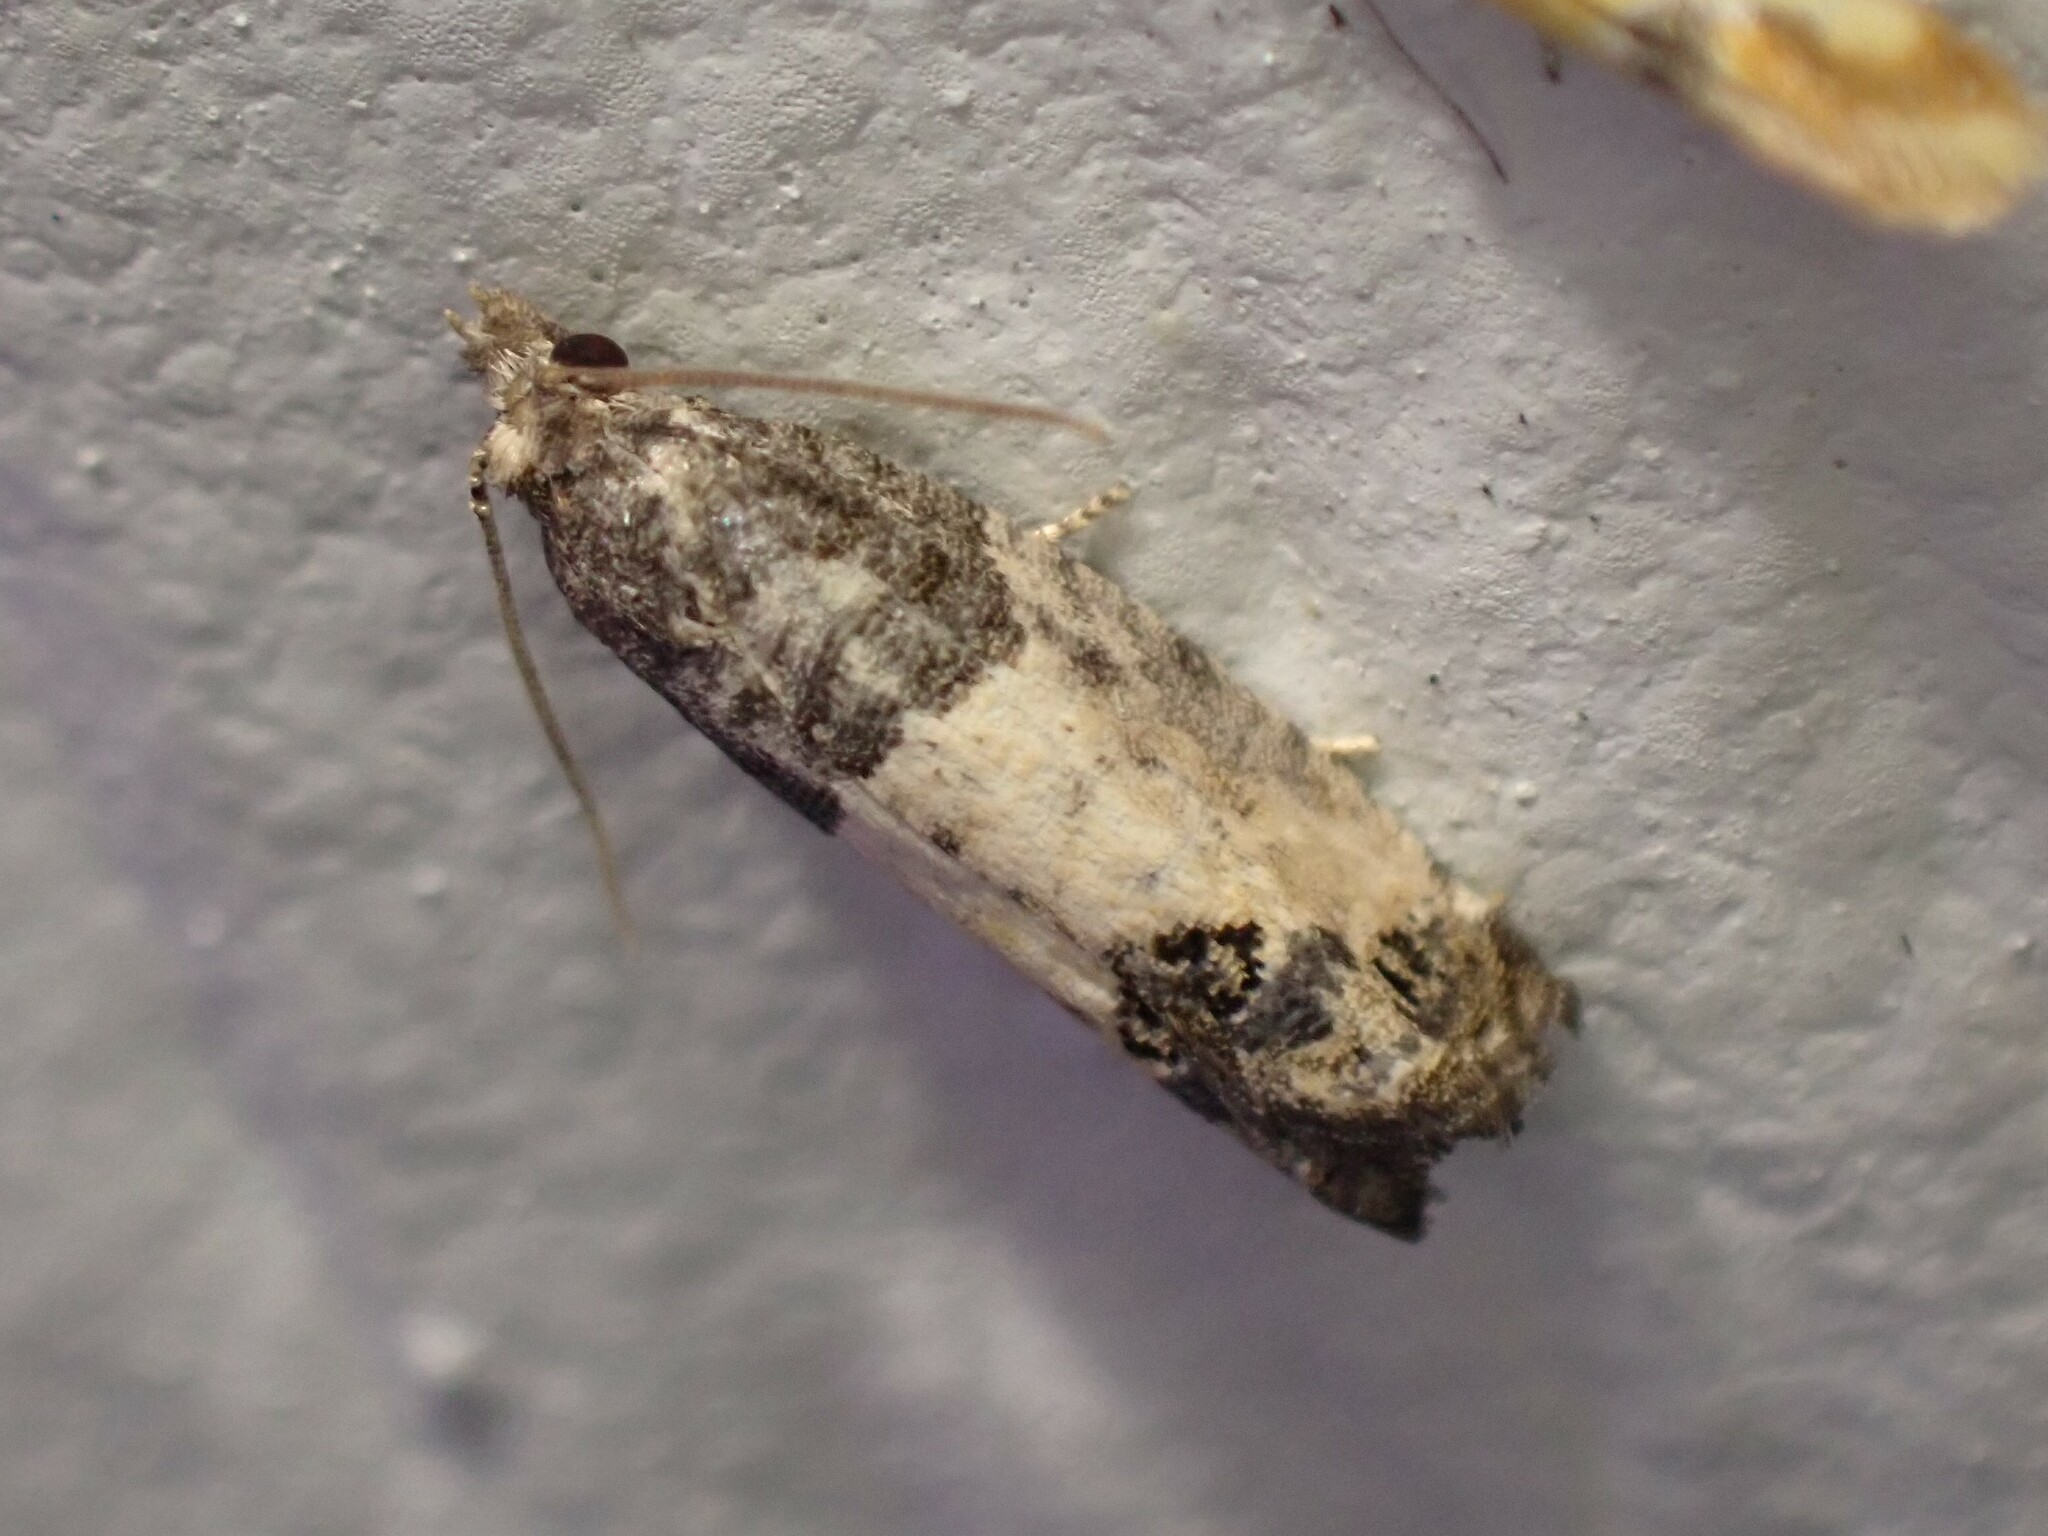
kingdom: Animalia
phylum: Arthropoda
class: Insecta
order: Lepidoptera
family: Tortricidae
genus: Spilonota
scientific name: Spilonota ocellana
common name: Bud moth
